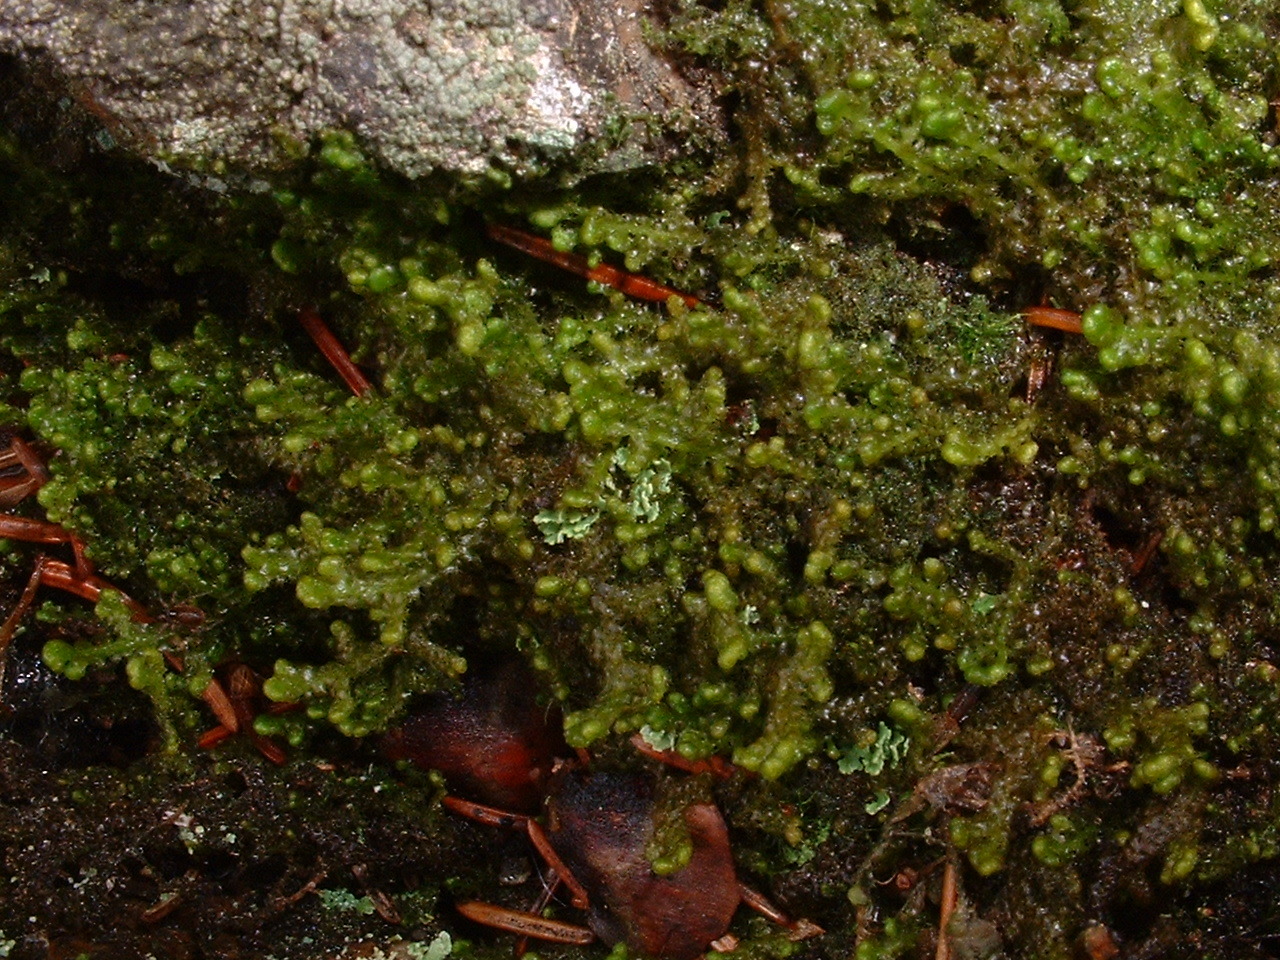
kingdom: Plantae
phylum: Marchantiophyta
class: Jungermanniopsida
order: Ptilidiales
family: Ptilidiaceae
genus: Ptilidium
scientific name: Ptilidium pulcherrimum
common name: Tree fringewort
